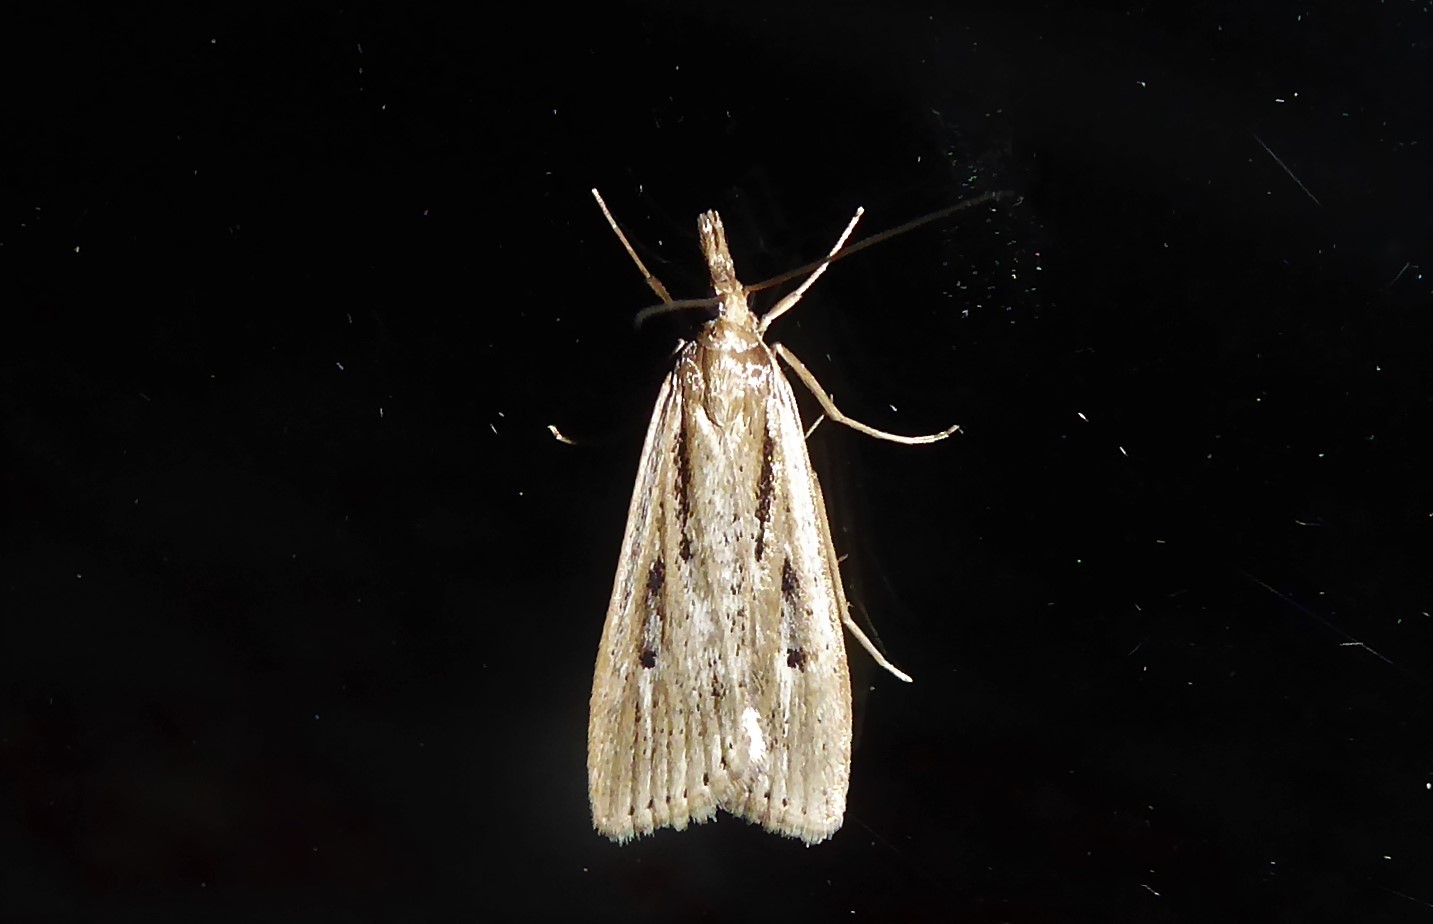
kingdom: Animalia
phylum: Arthropoda
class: Insecta
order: Lepidoptera
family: Crambidae
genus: Eudonia
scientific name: Eudonia sabulosella
